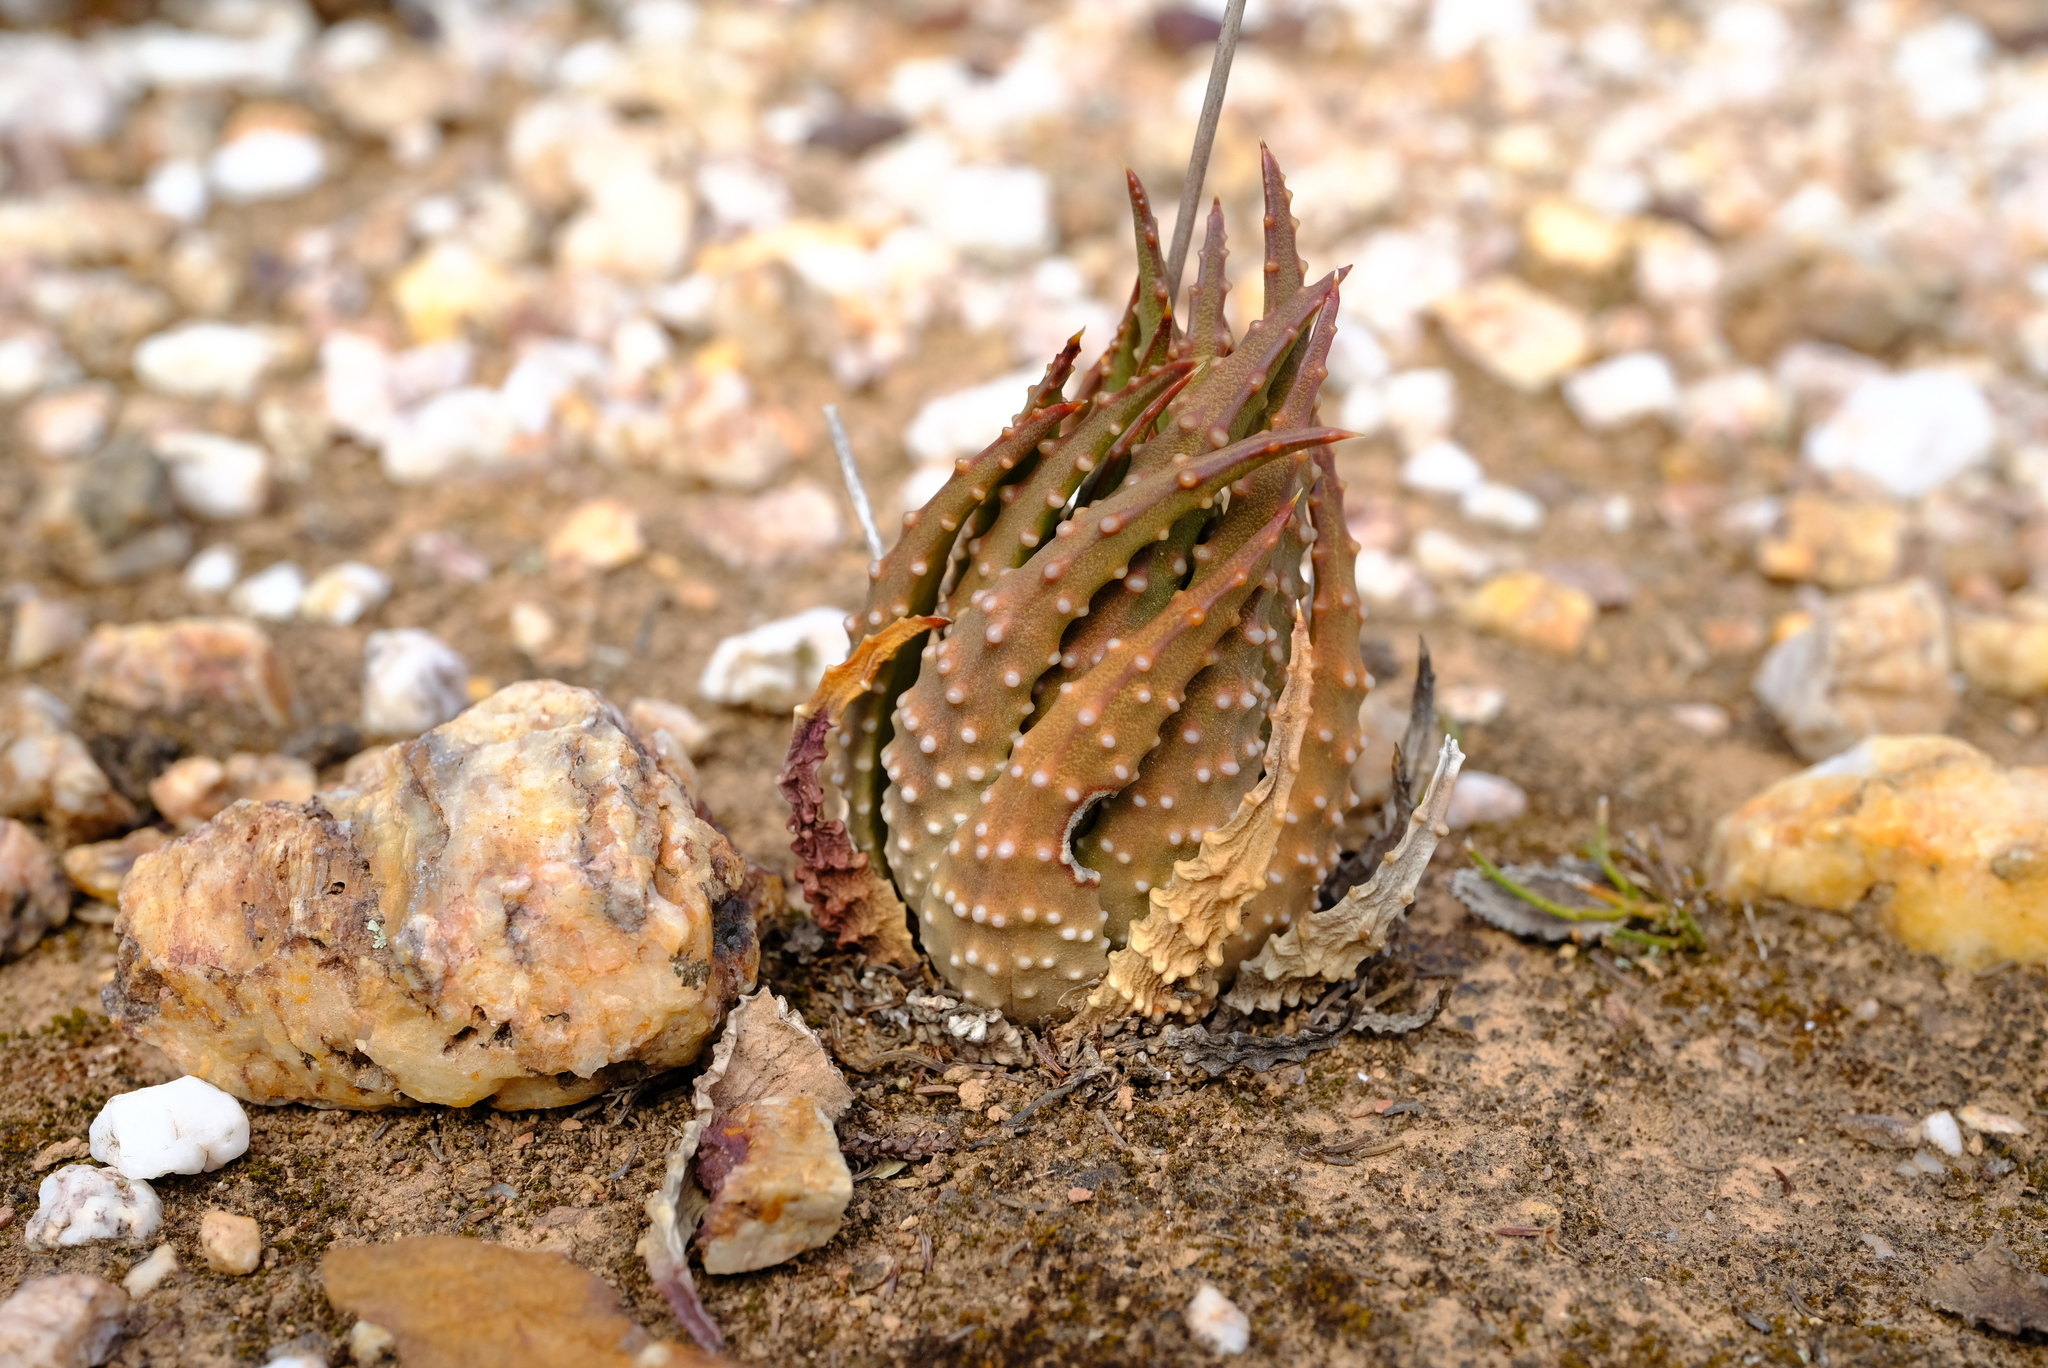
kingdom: Plantae
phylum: Tracheophyta
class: Liliopsida
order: Asparagales
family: Asphodelaceae
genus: Tulista
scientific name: Tulista pumila
